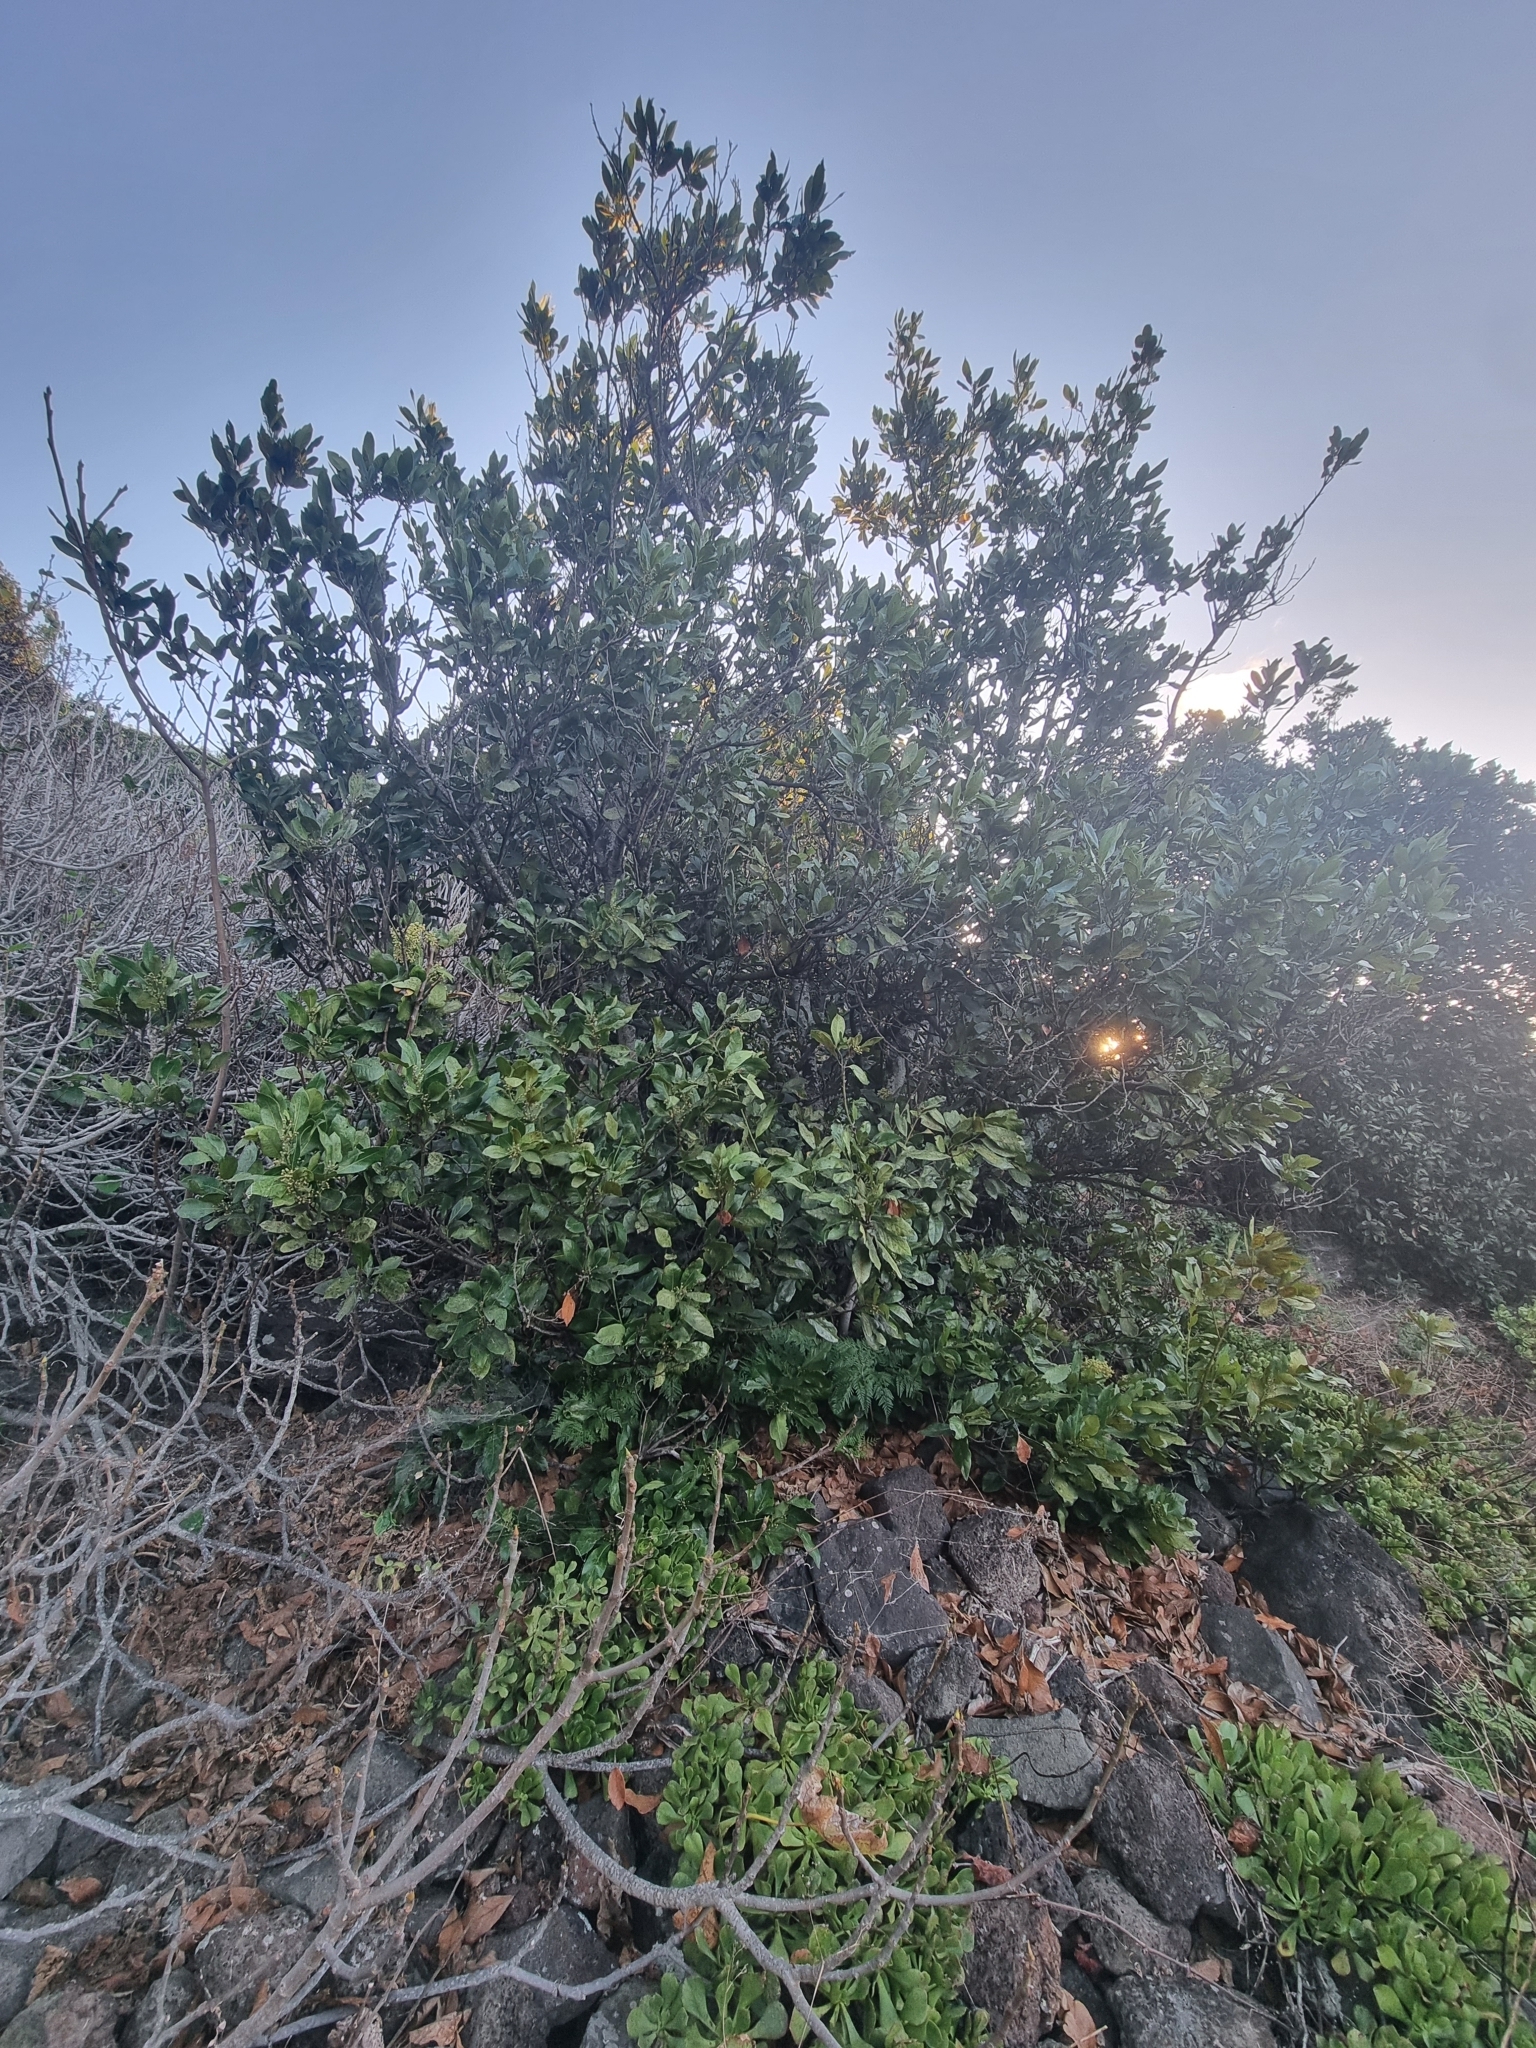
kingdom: Plantae
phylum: Tracheophyta
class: Magnoliopsida
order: Laurales
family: Lauraceae
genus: Laurus
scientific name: Laurus novocanariensis
